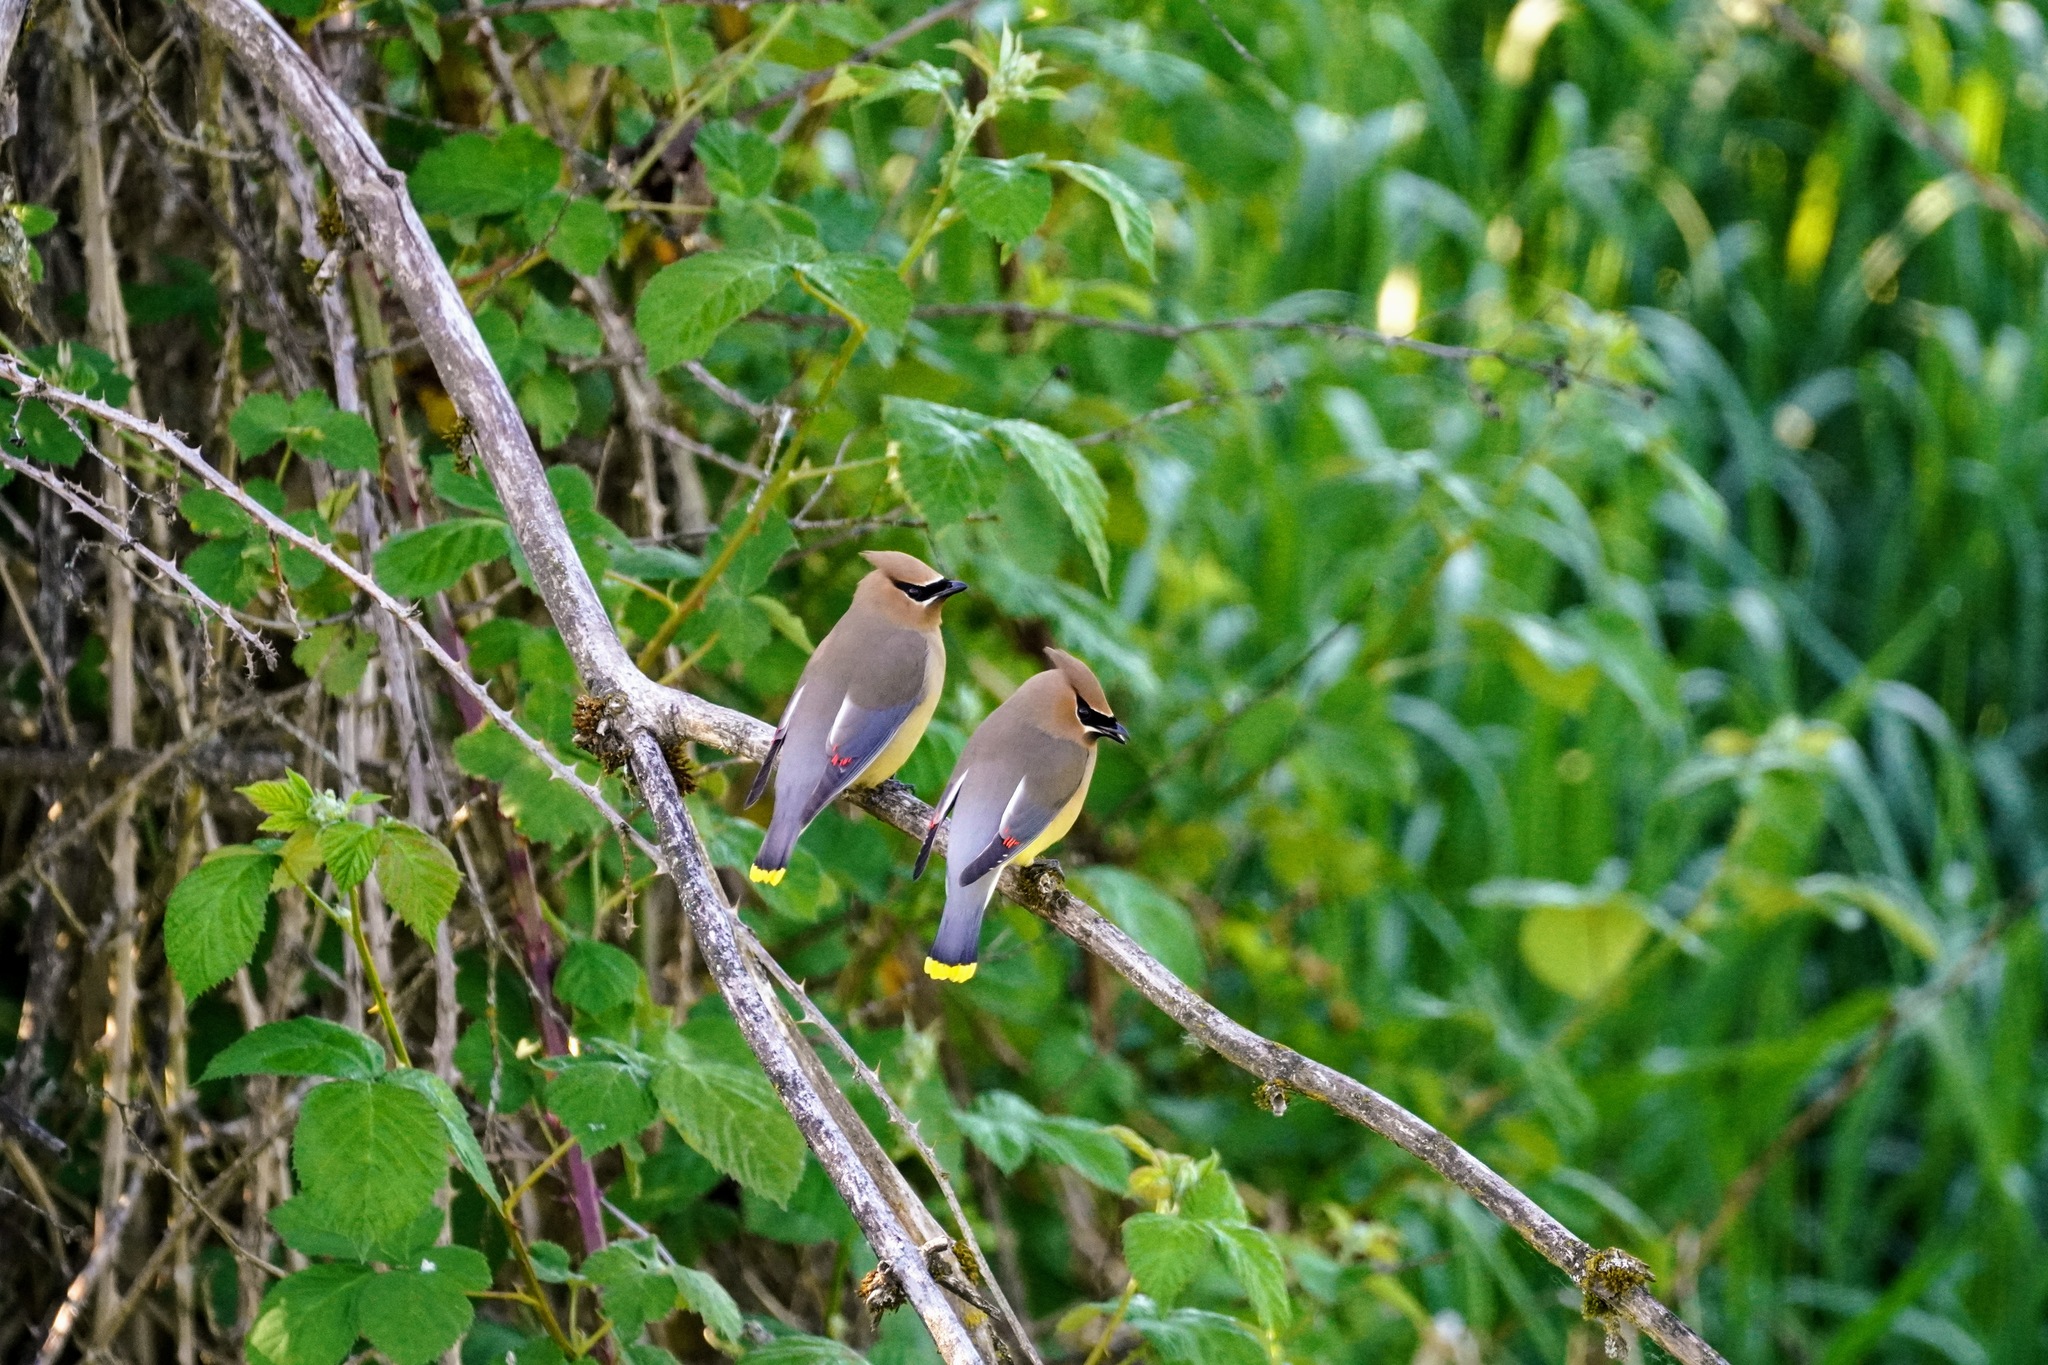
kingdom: Animalia
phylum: Chordata
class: Aves
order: Passeriformes
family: Bombycillidae
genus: Bombycilla
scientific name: Bombycilla cedrorum
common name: Cedar waxwing
